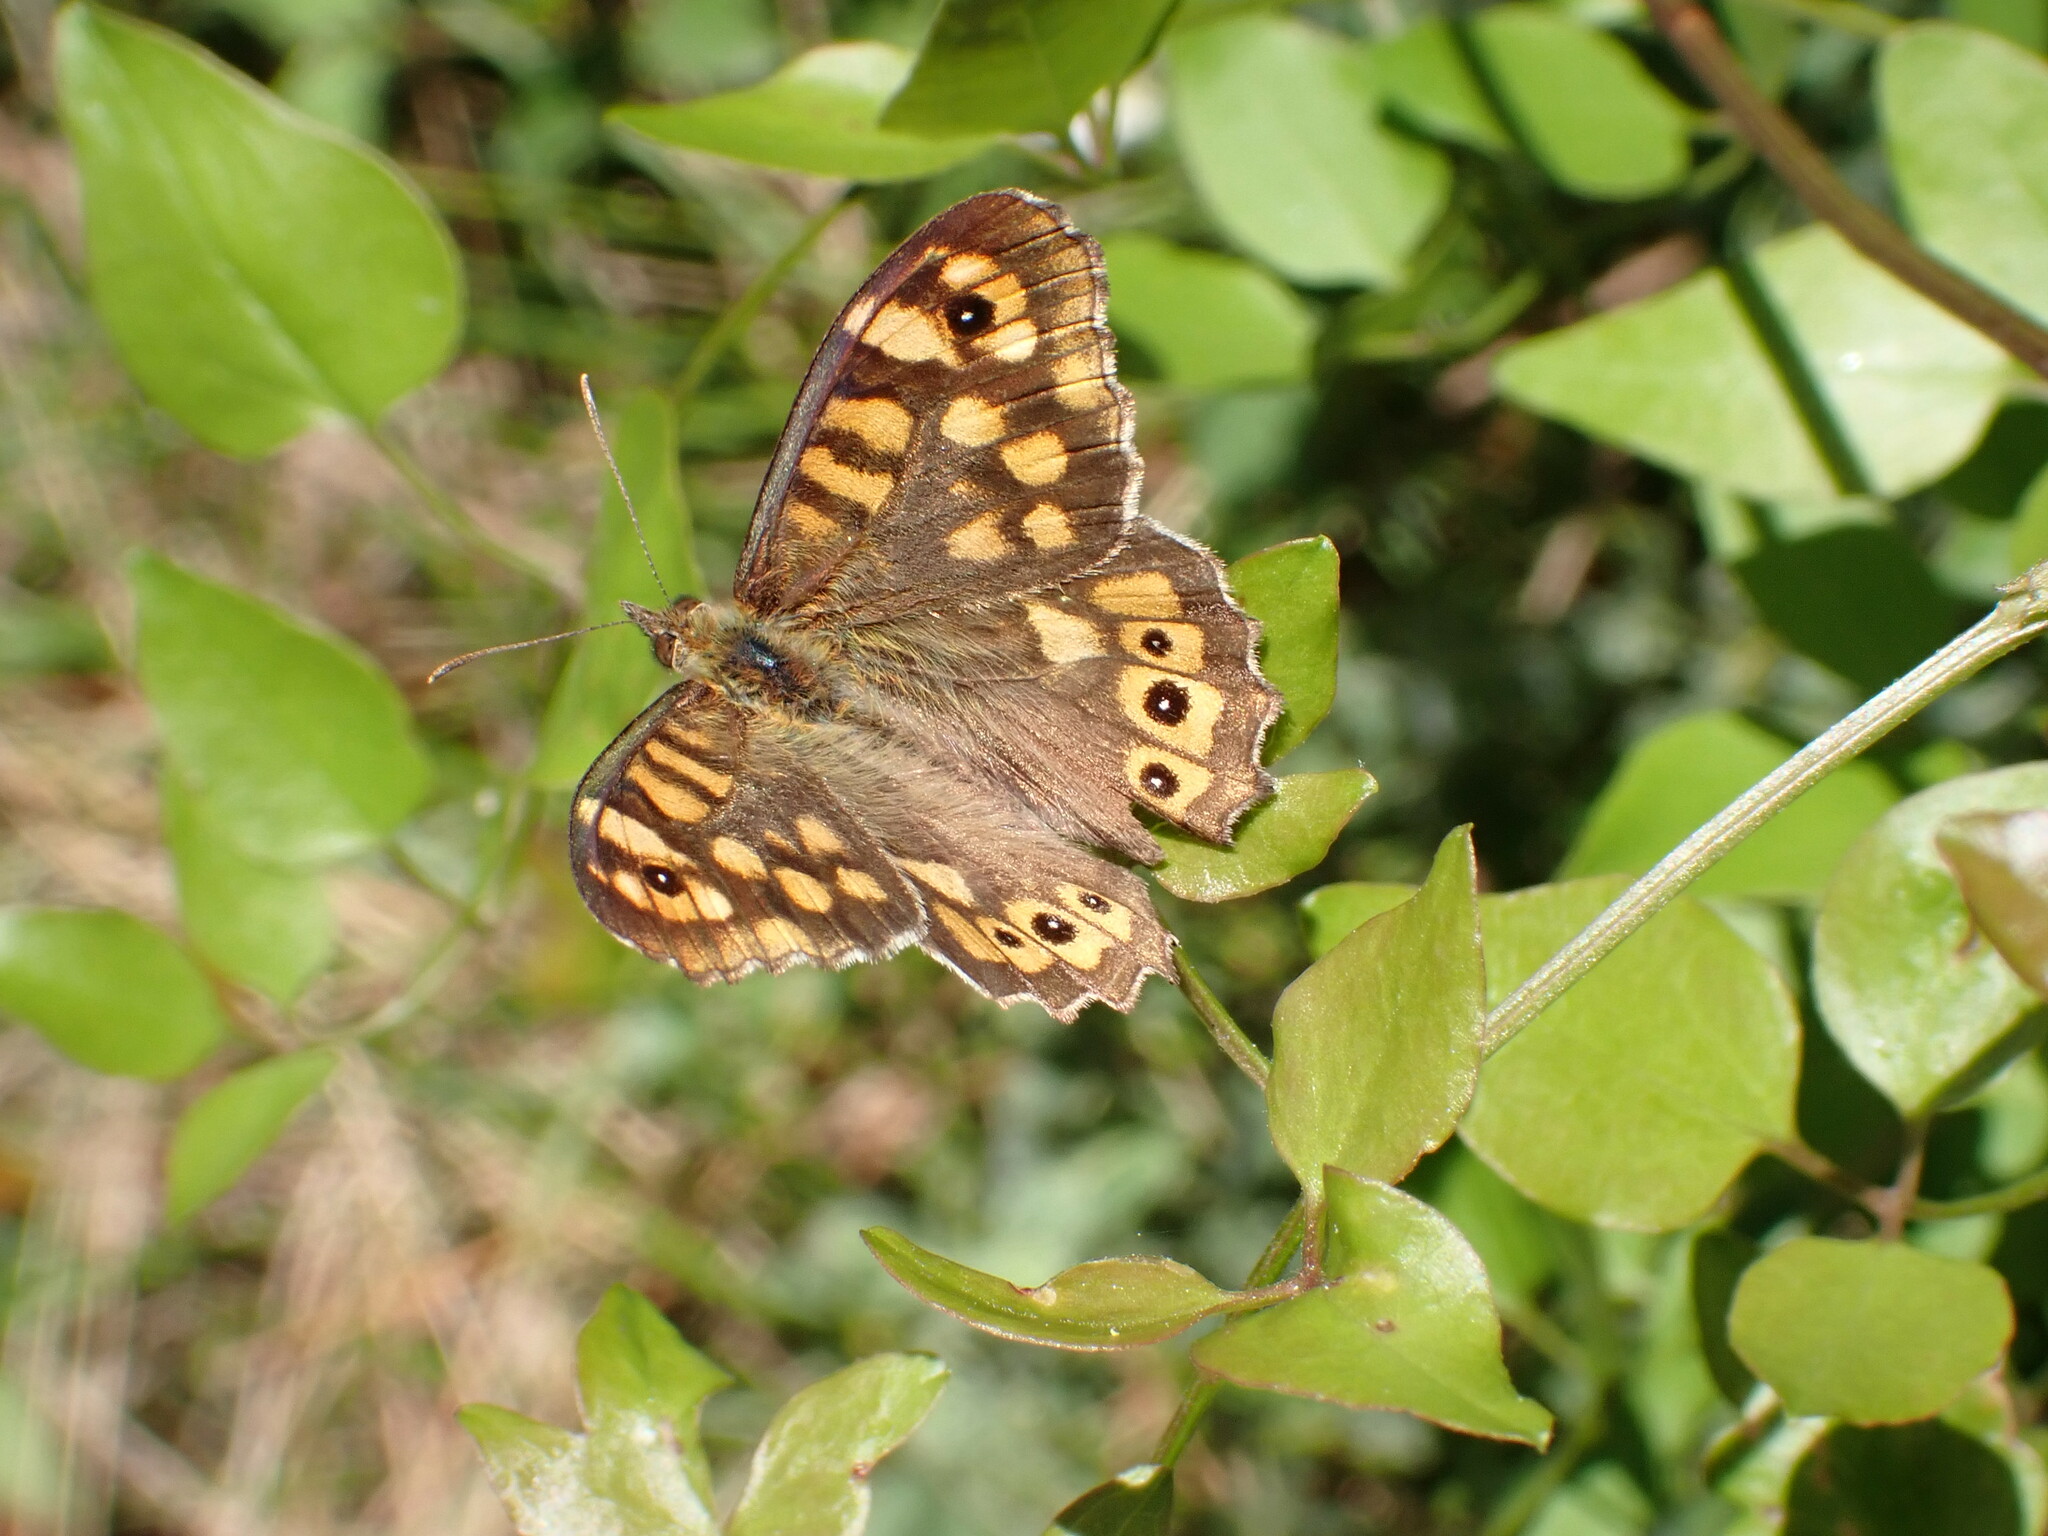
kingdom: Animalia
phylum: Arthropoda
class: Insecta
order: Lepidoptera
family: Nymphalidae
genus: Pararge
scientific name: Pararge aegeria
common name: Speckled wood
